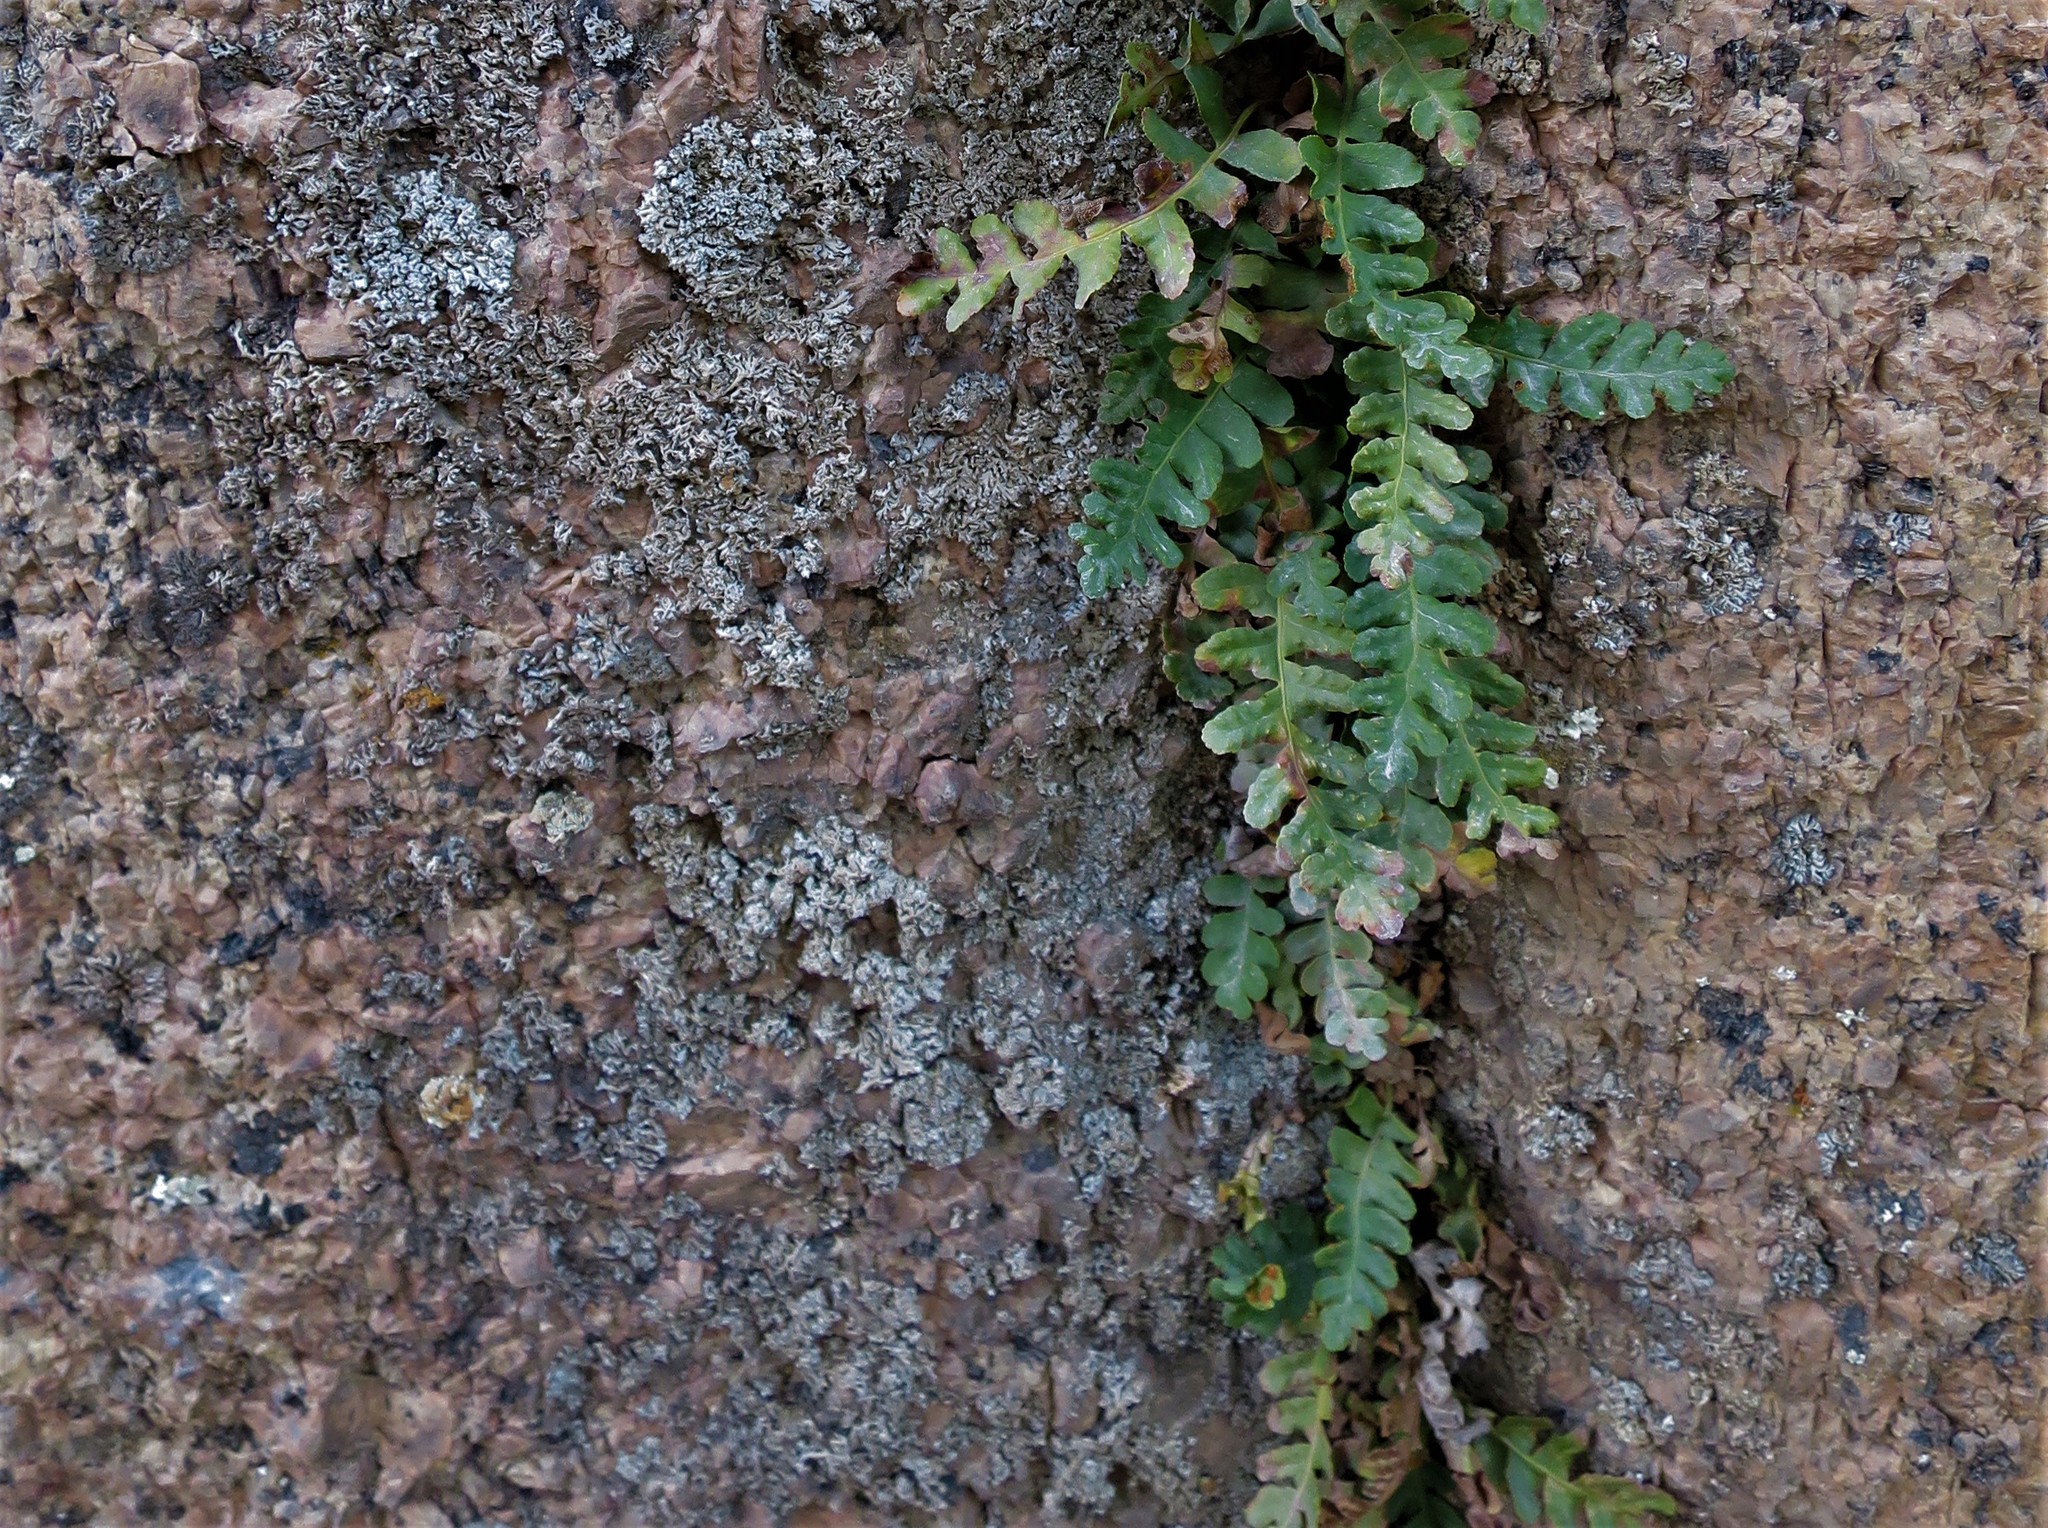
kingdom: Plantae
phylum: Tracheophyta
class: Polypodiopsida
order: Polypodiales
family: Polypodiaceae
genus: Polypodium
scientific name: Polypodium saximontanum
